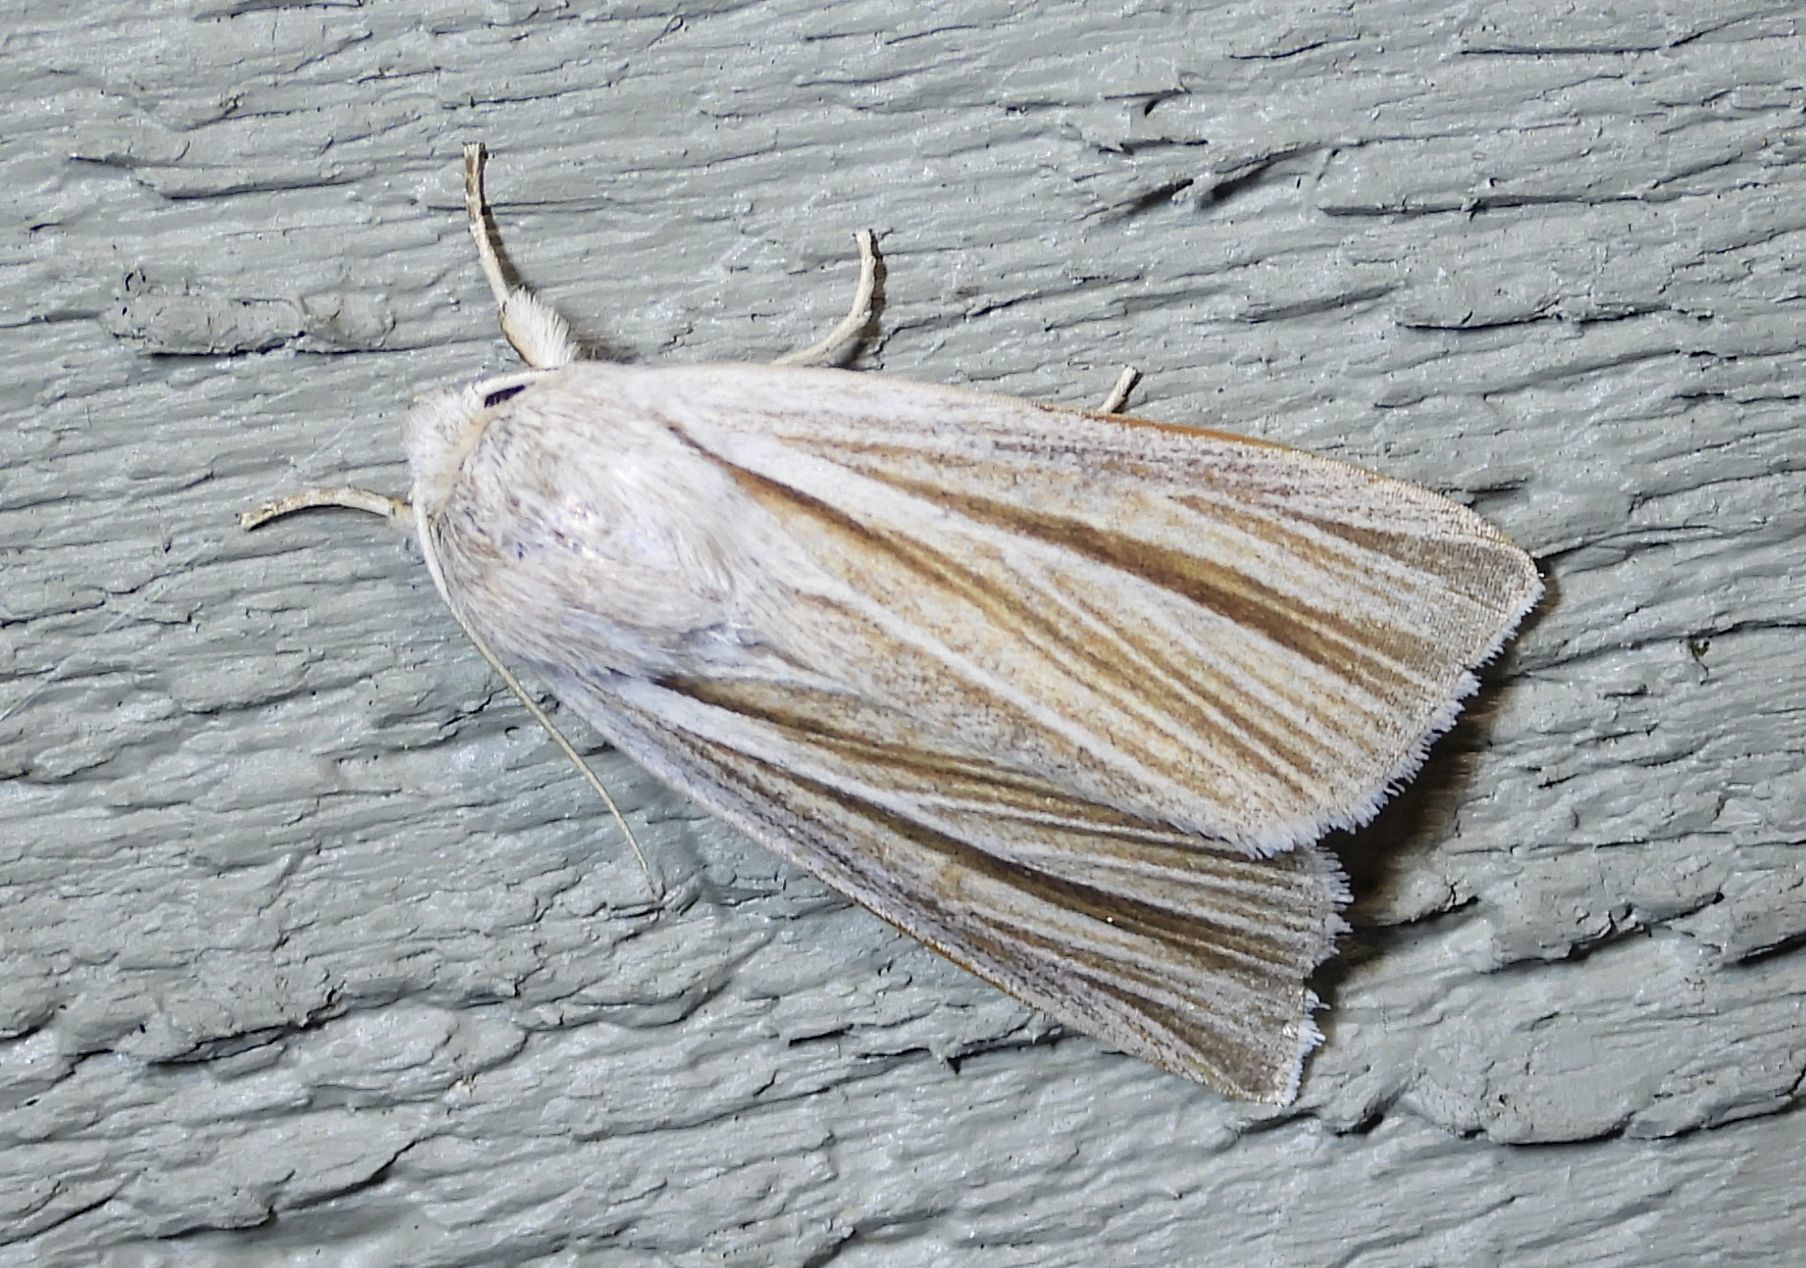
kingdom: Animalia
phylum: Arthropoda
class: Insecta
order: Lepidoptera
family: Noctuidae
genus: Acronicta
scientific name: Acronicta insularis
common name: Henry's marsh moth
